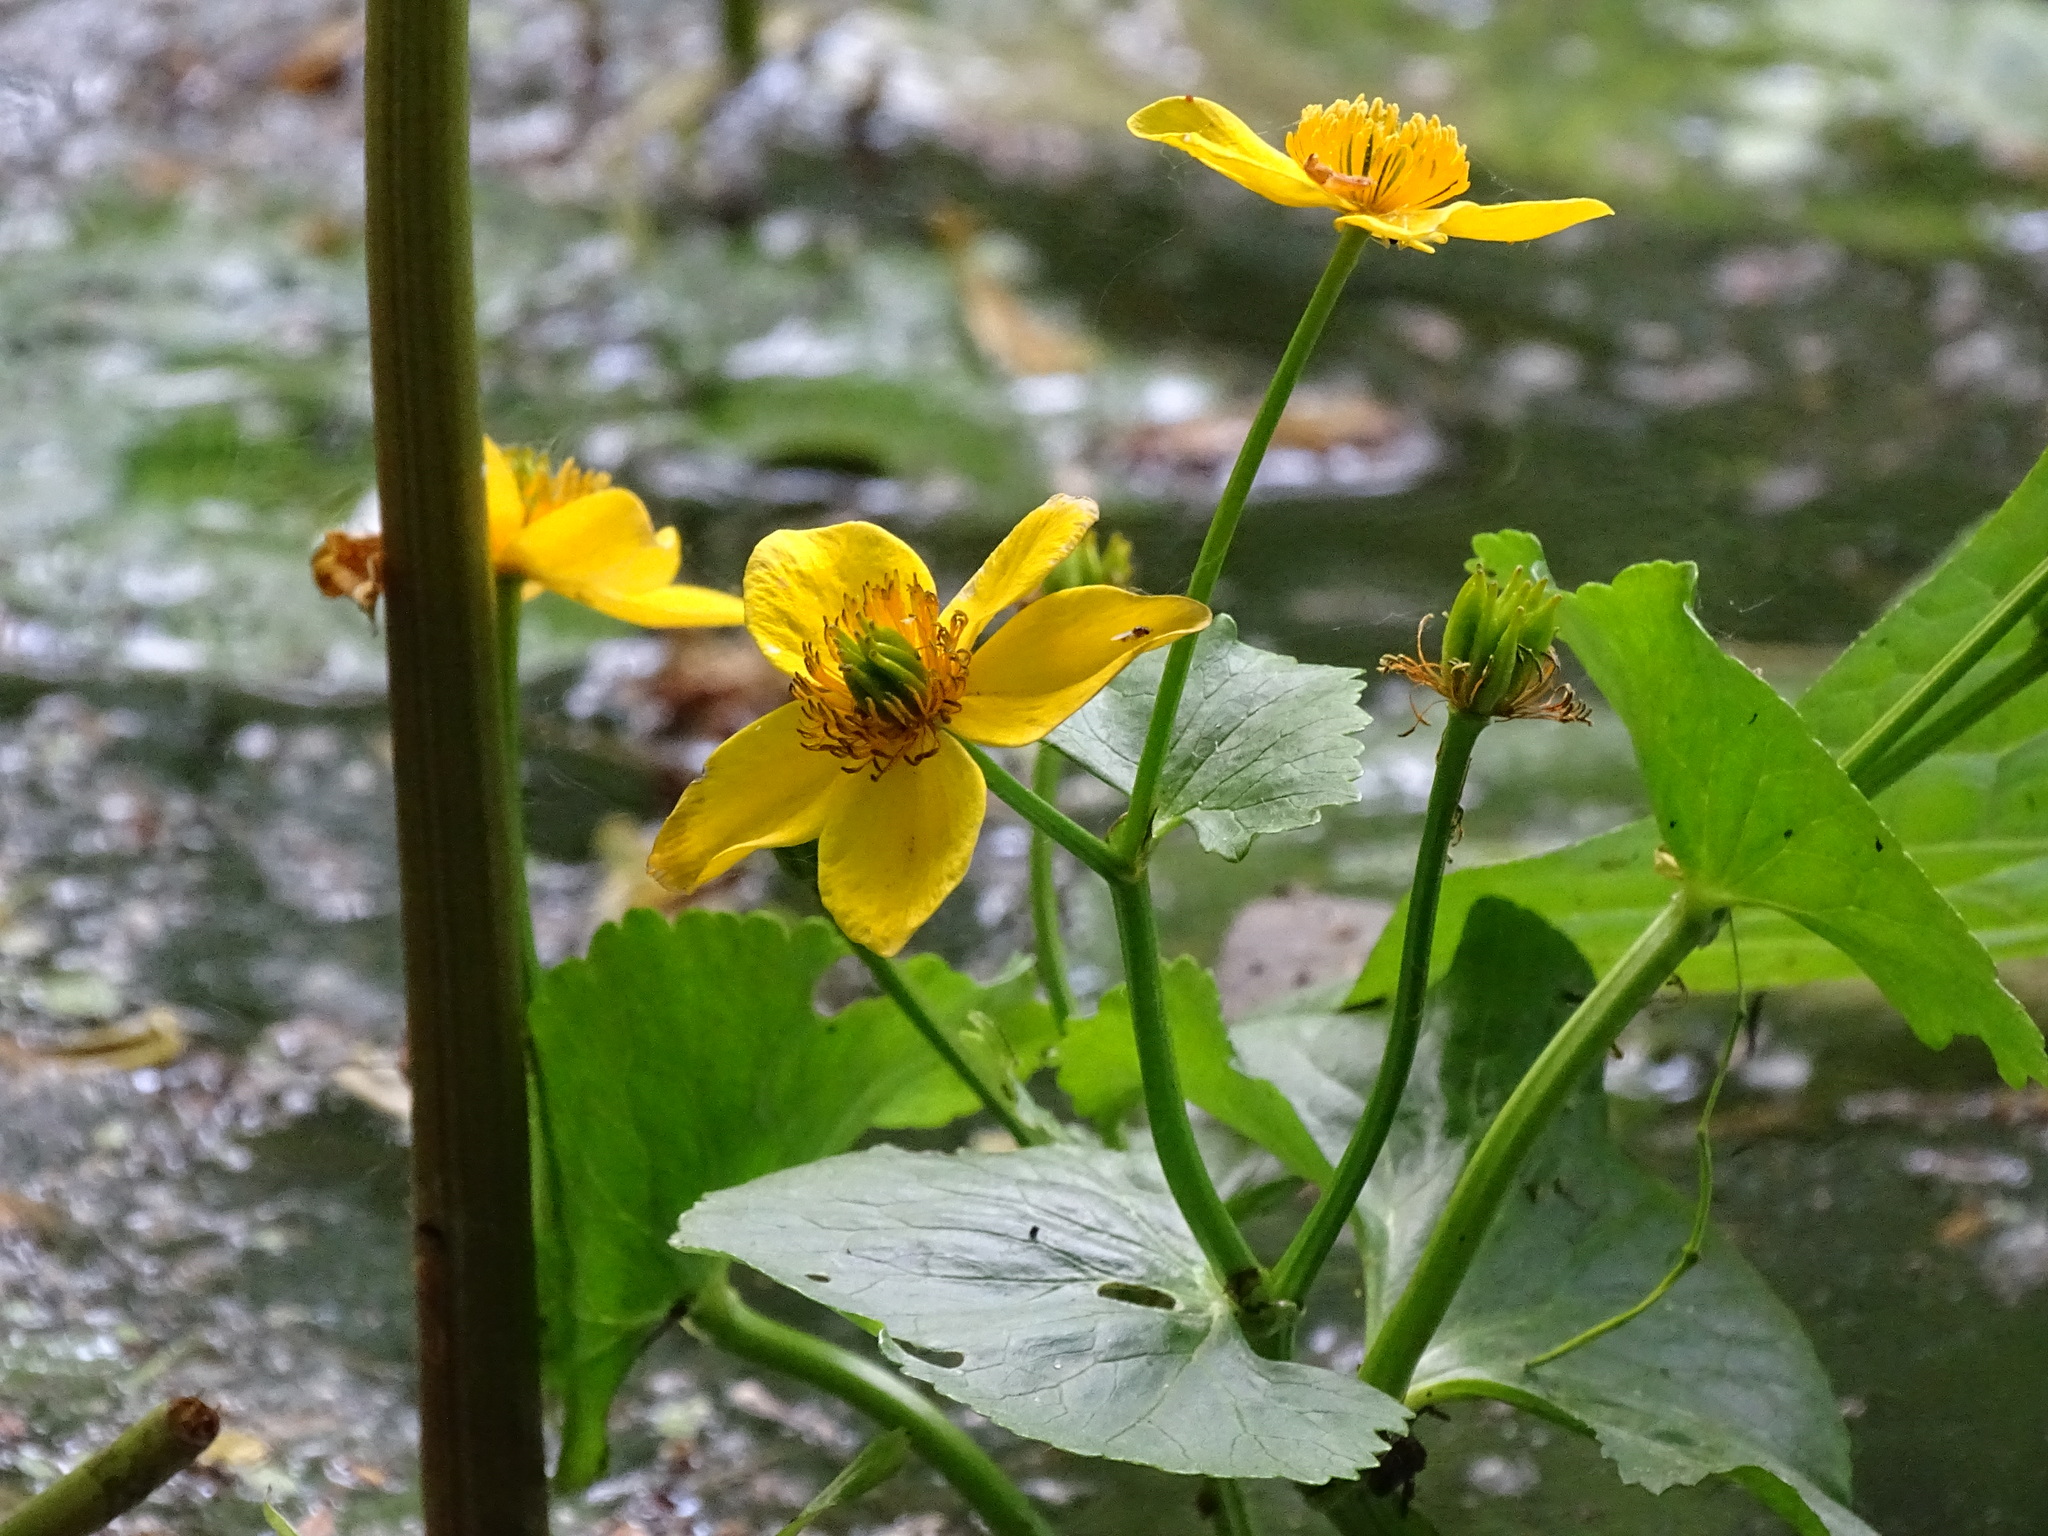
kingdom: Plantae
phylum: Tracheophyta
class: Magnoliopsida
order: Ranunculales
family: Ranunculaceae
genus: Caltha
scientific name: Caltha palustris
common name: Marsh marigold
